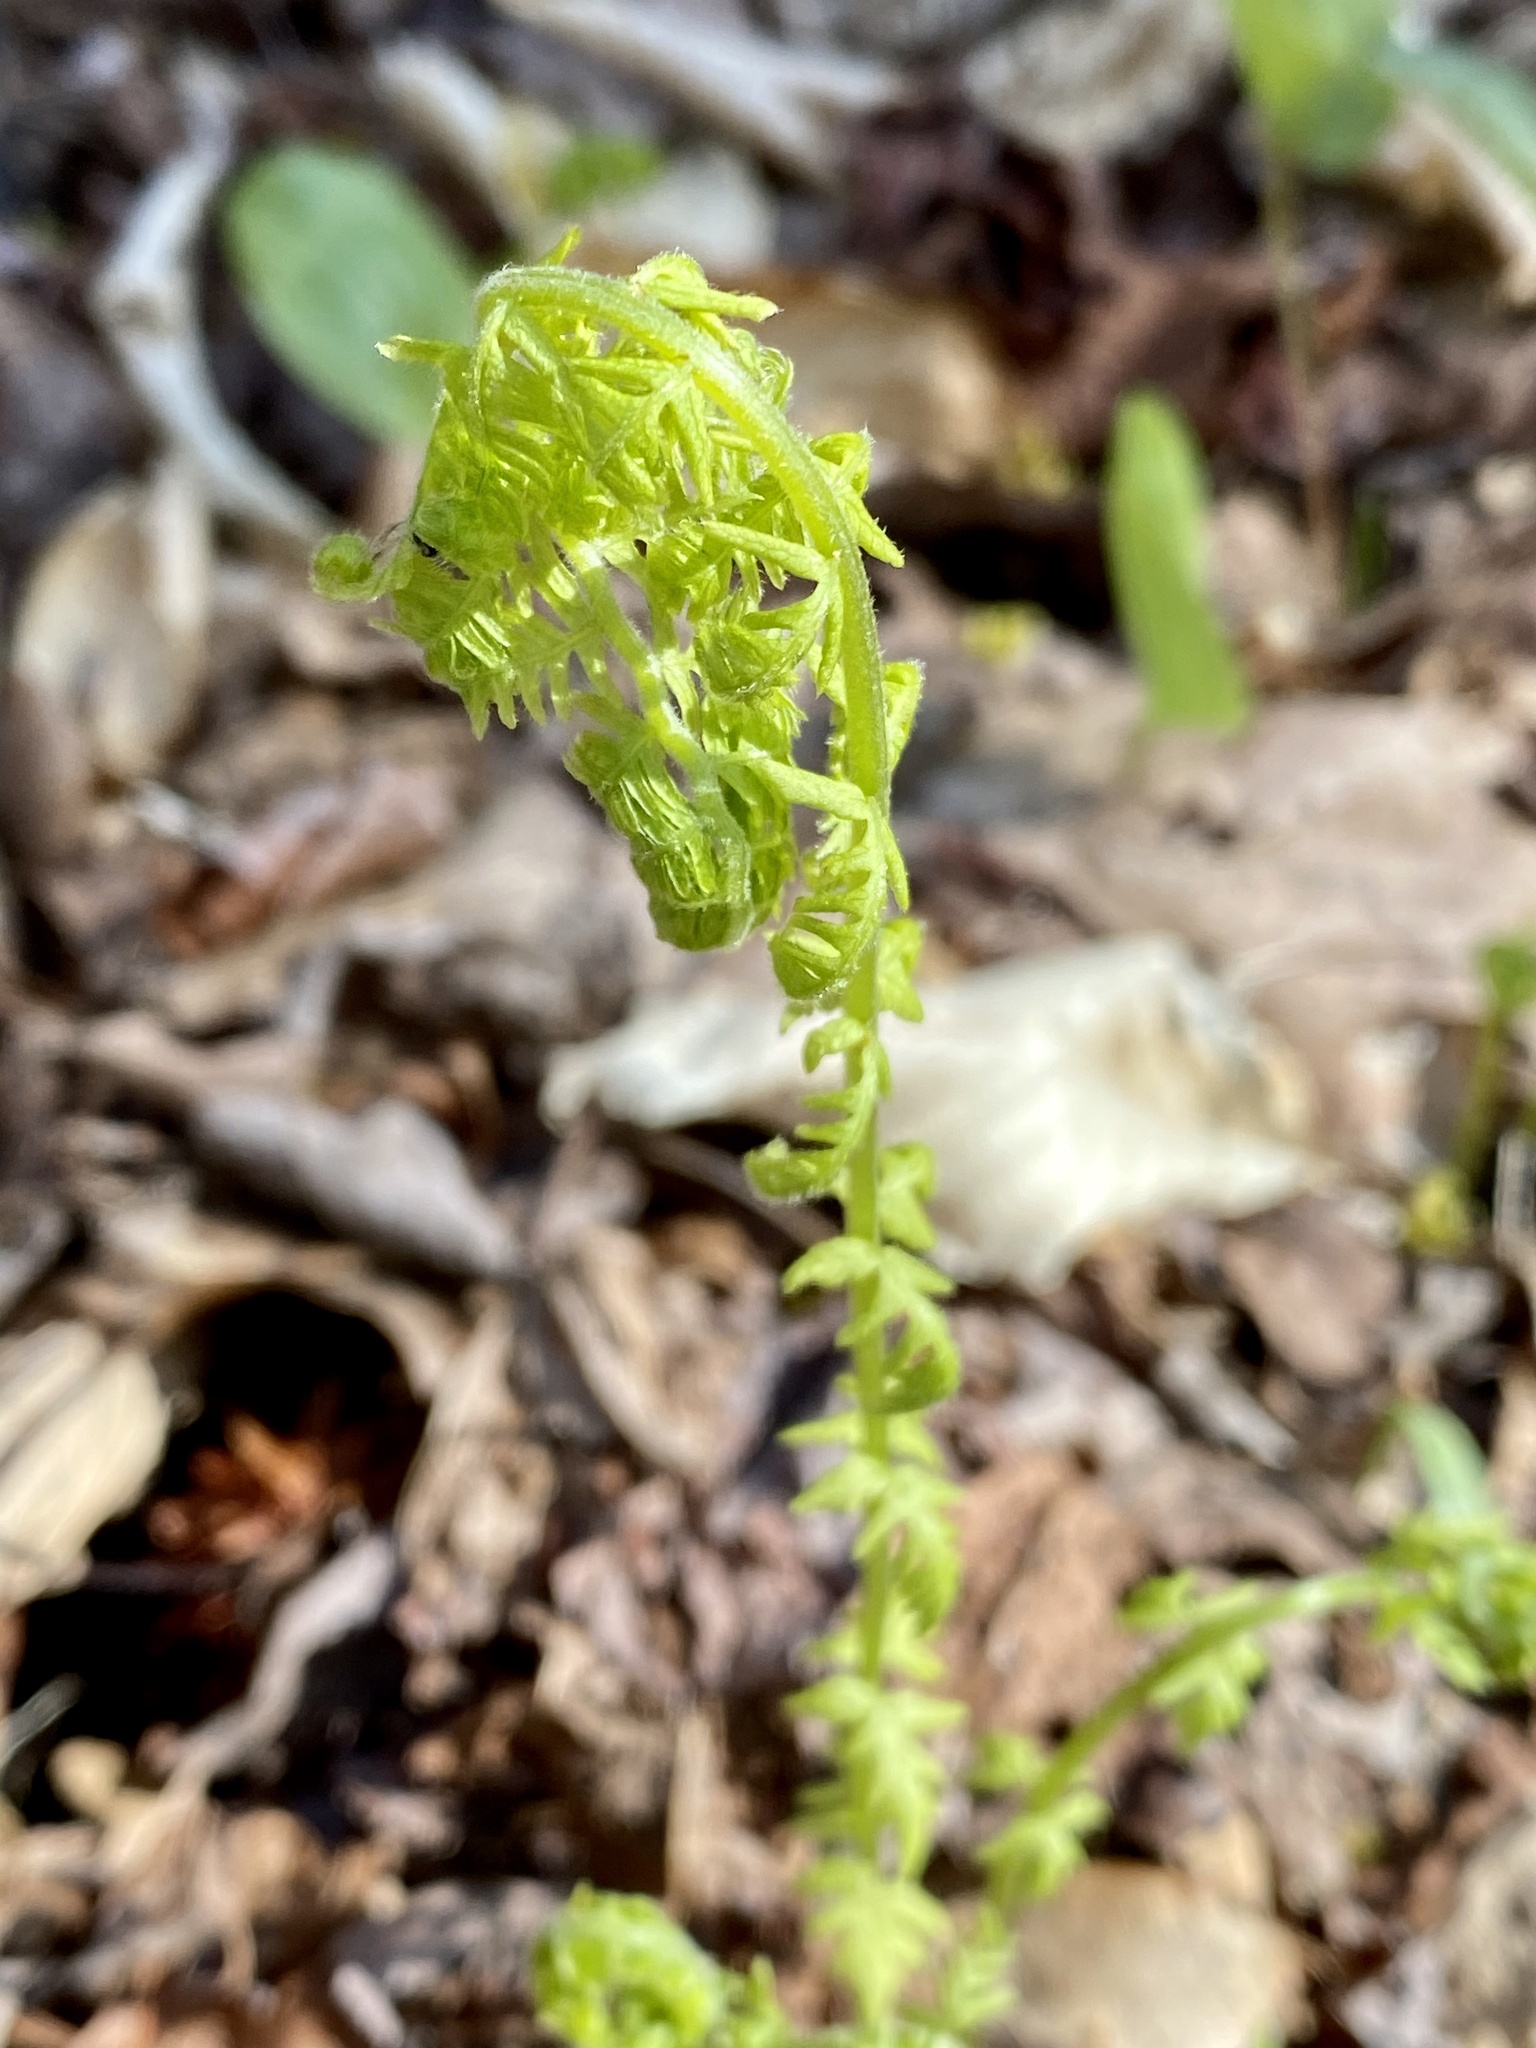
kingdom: Plantae
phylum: Tracheophyta
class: Polypodiopsida
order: Polypodiales
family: Thelypteridaceae
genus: Amauropelta
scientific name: Amauropelta noveboracensis
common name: New york fern
